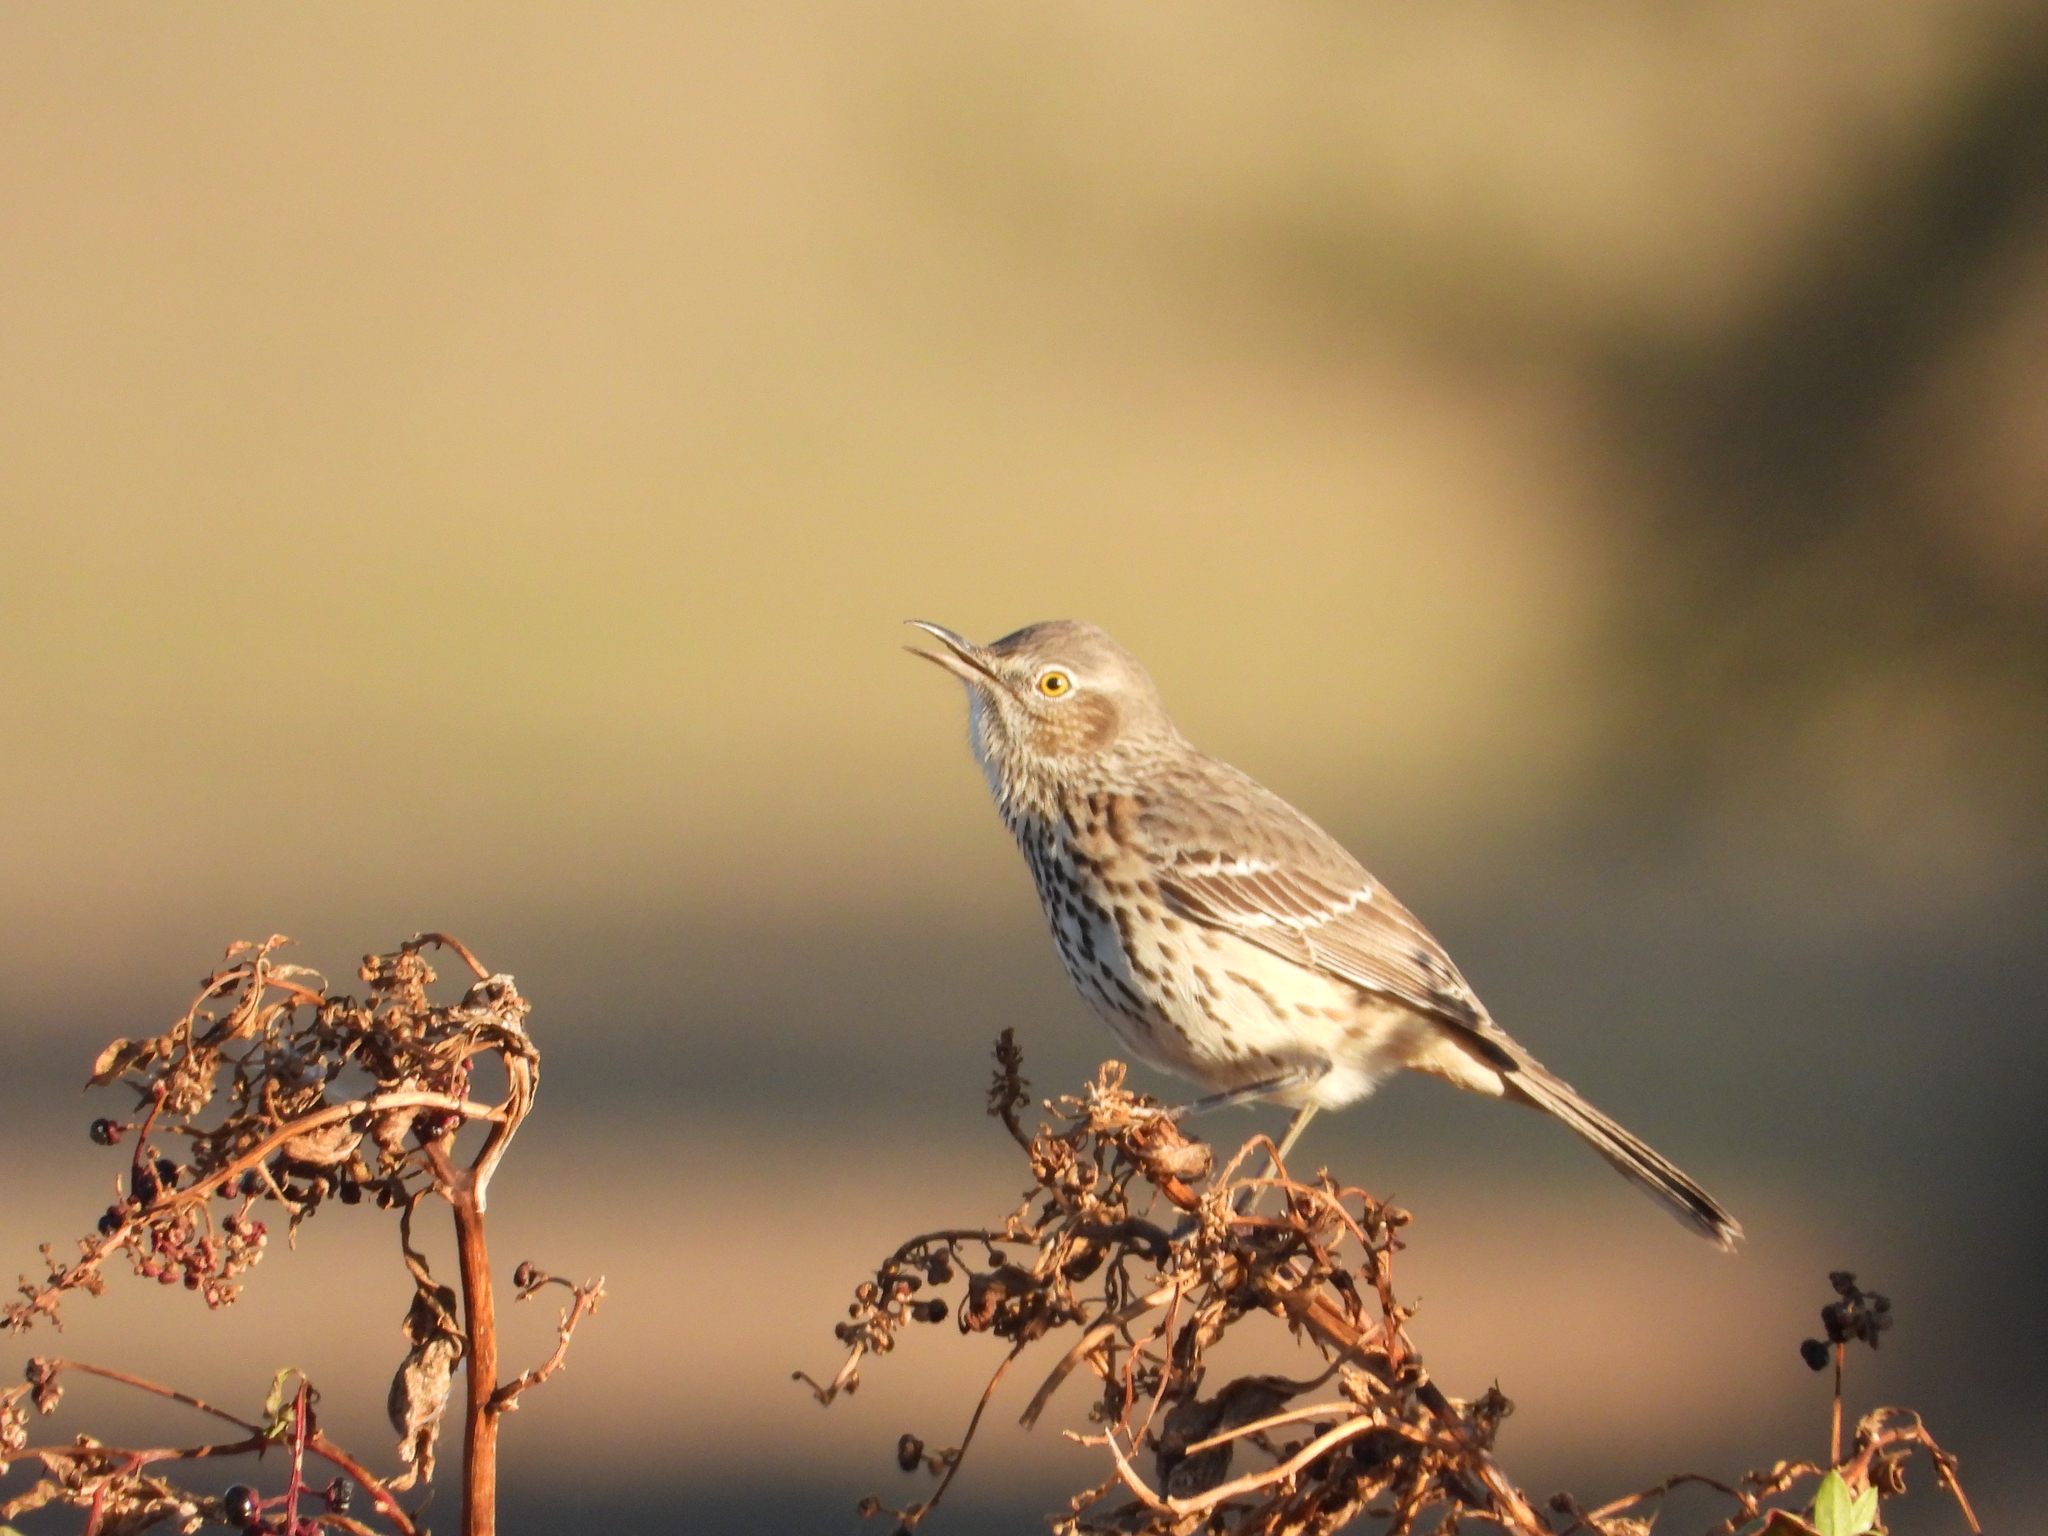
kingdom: Animalia
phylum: Chordata
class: Aves
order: Passeriformes
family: Mimidae
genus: Oreoscoptes
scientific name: Oreoscoptes montanus
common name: Sage thrasher
